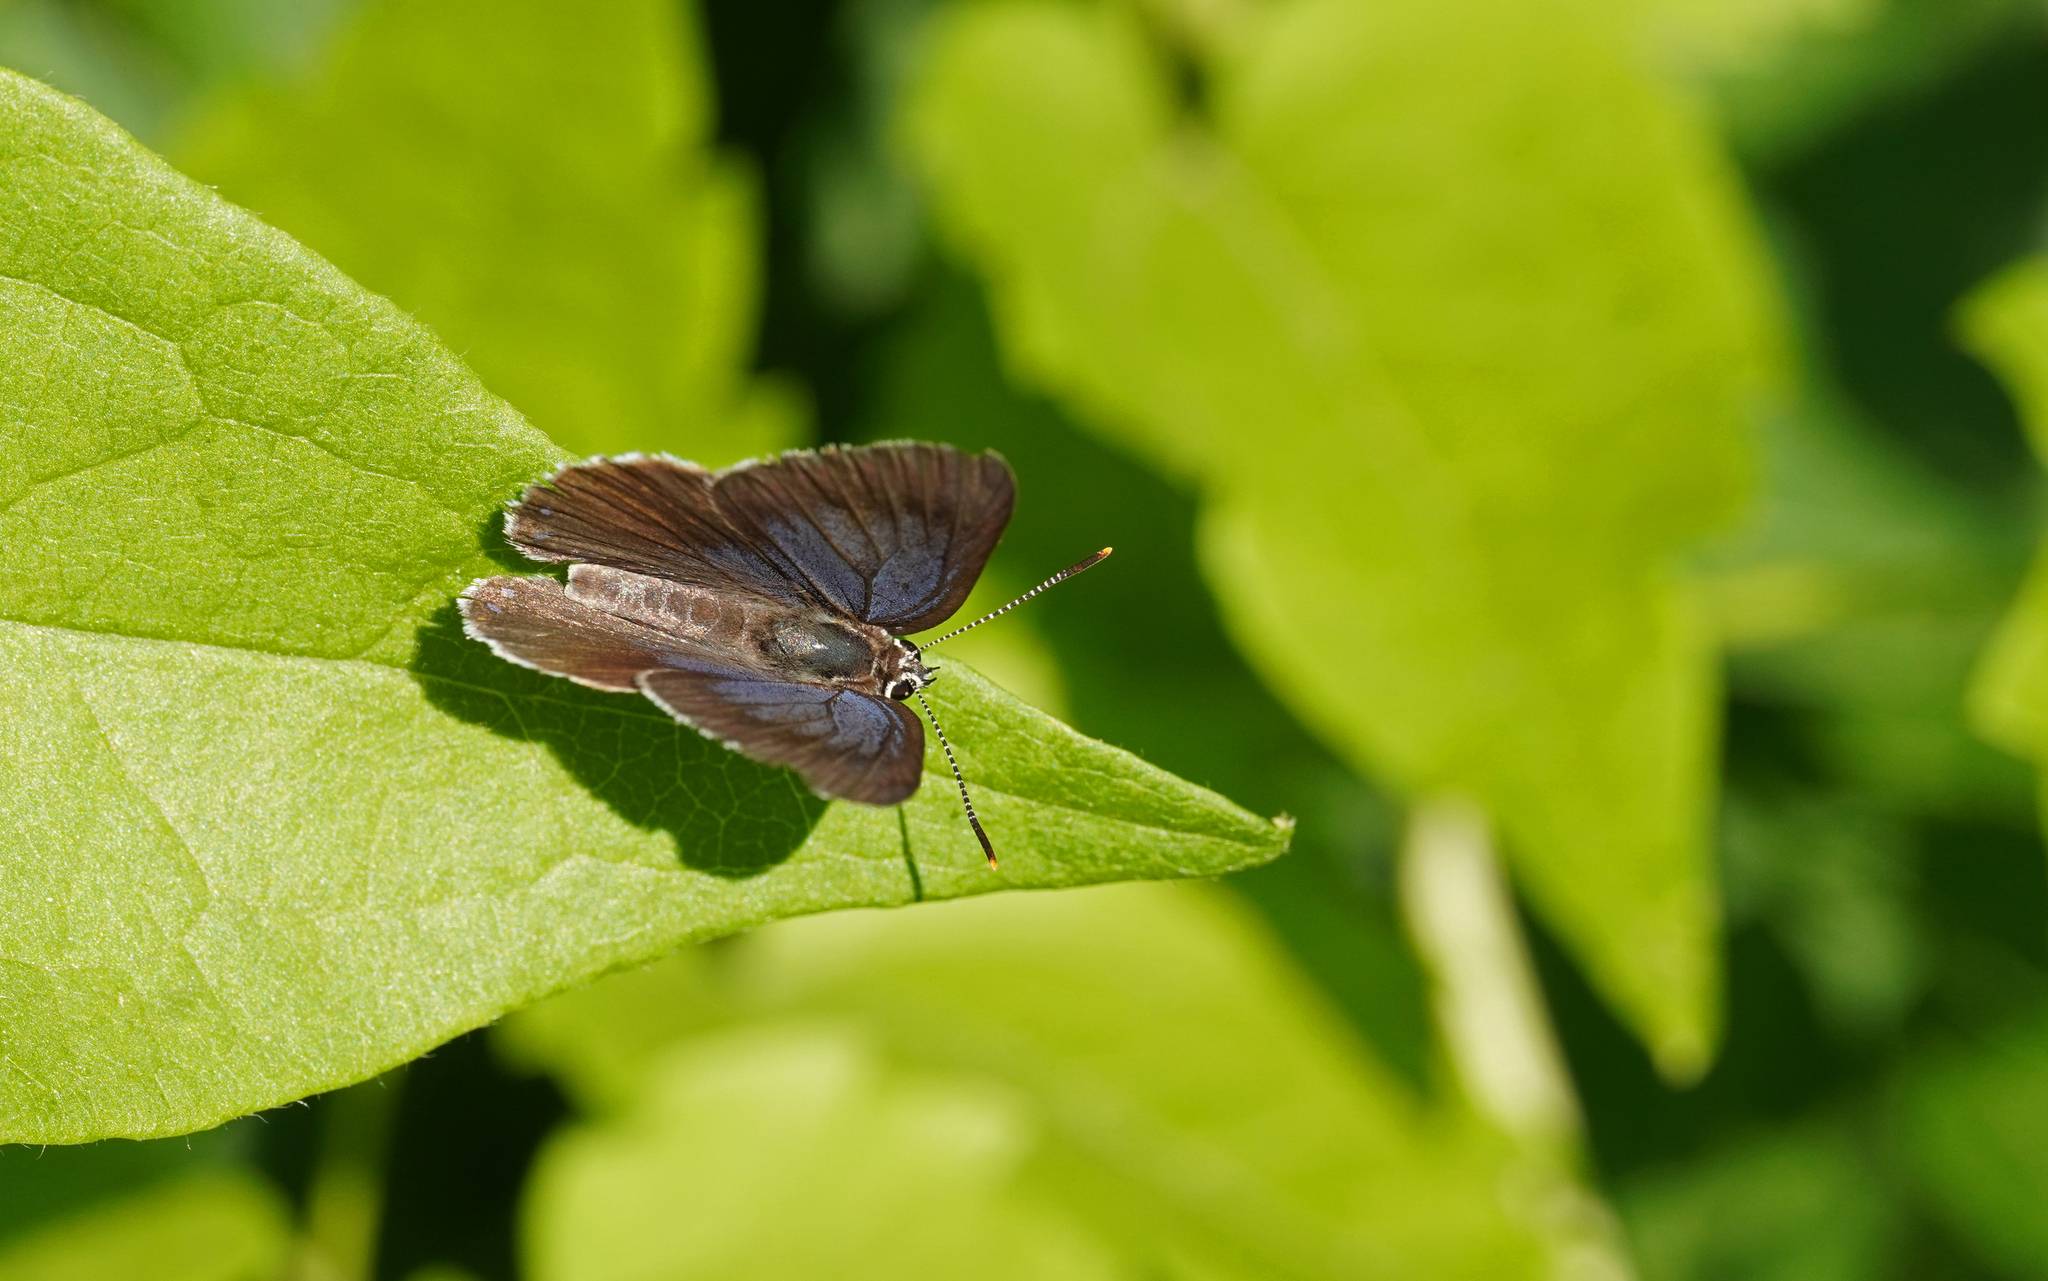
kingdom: Animalia
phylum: Arthropoda
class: Insecta
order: Lepidoptera
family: Lycaenidae
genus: Laeosopis
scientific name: Laeosopis roboris
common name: Spanish purple hairstreak
